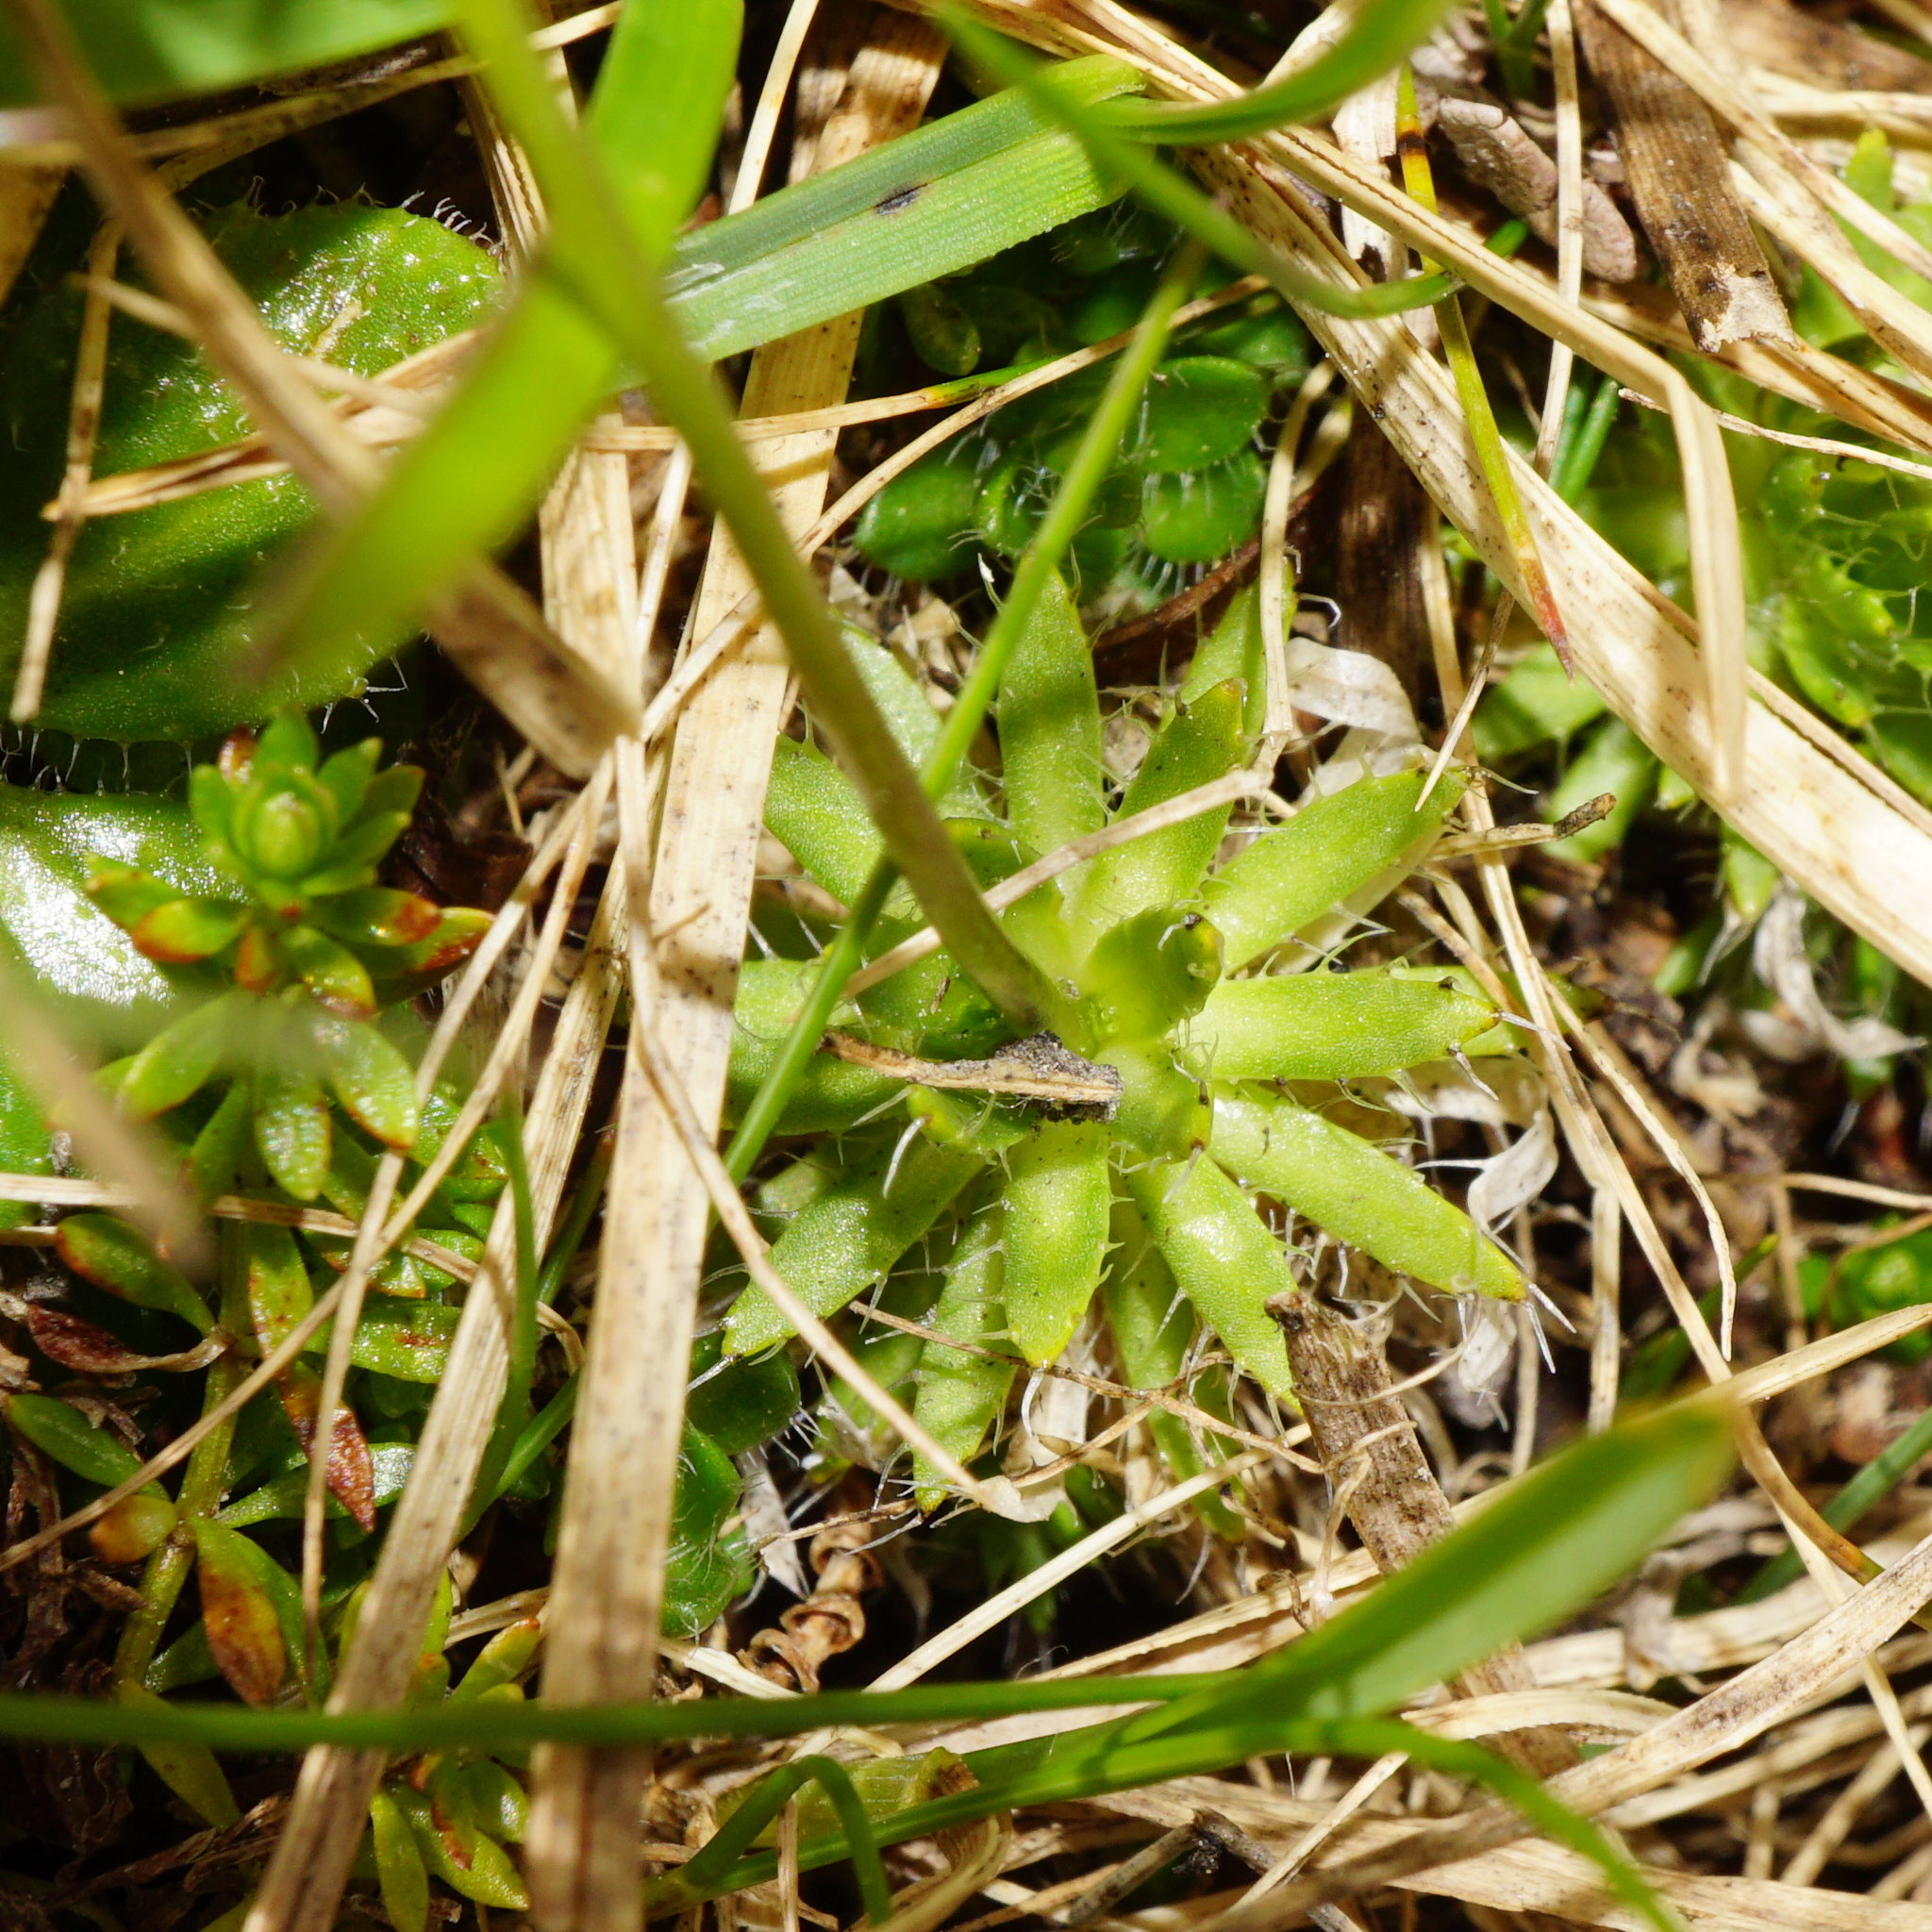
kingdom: Plantae
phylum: Tracheophyta
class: Magnoliopsida
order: Brassicales
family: Brassicaceae
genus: Draba
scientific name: Draba aizoides
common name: Yellow whitlowgrass
